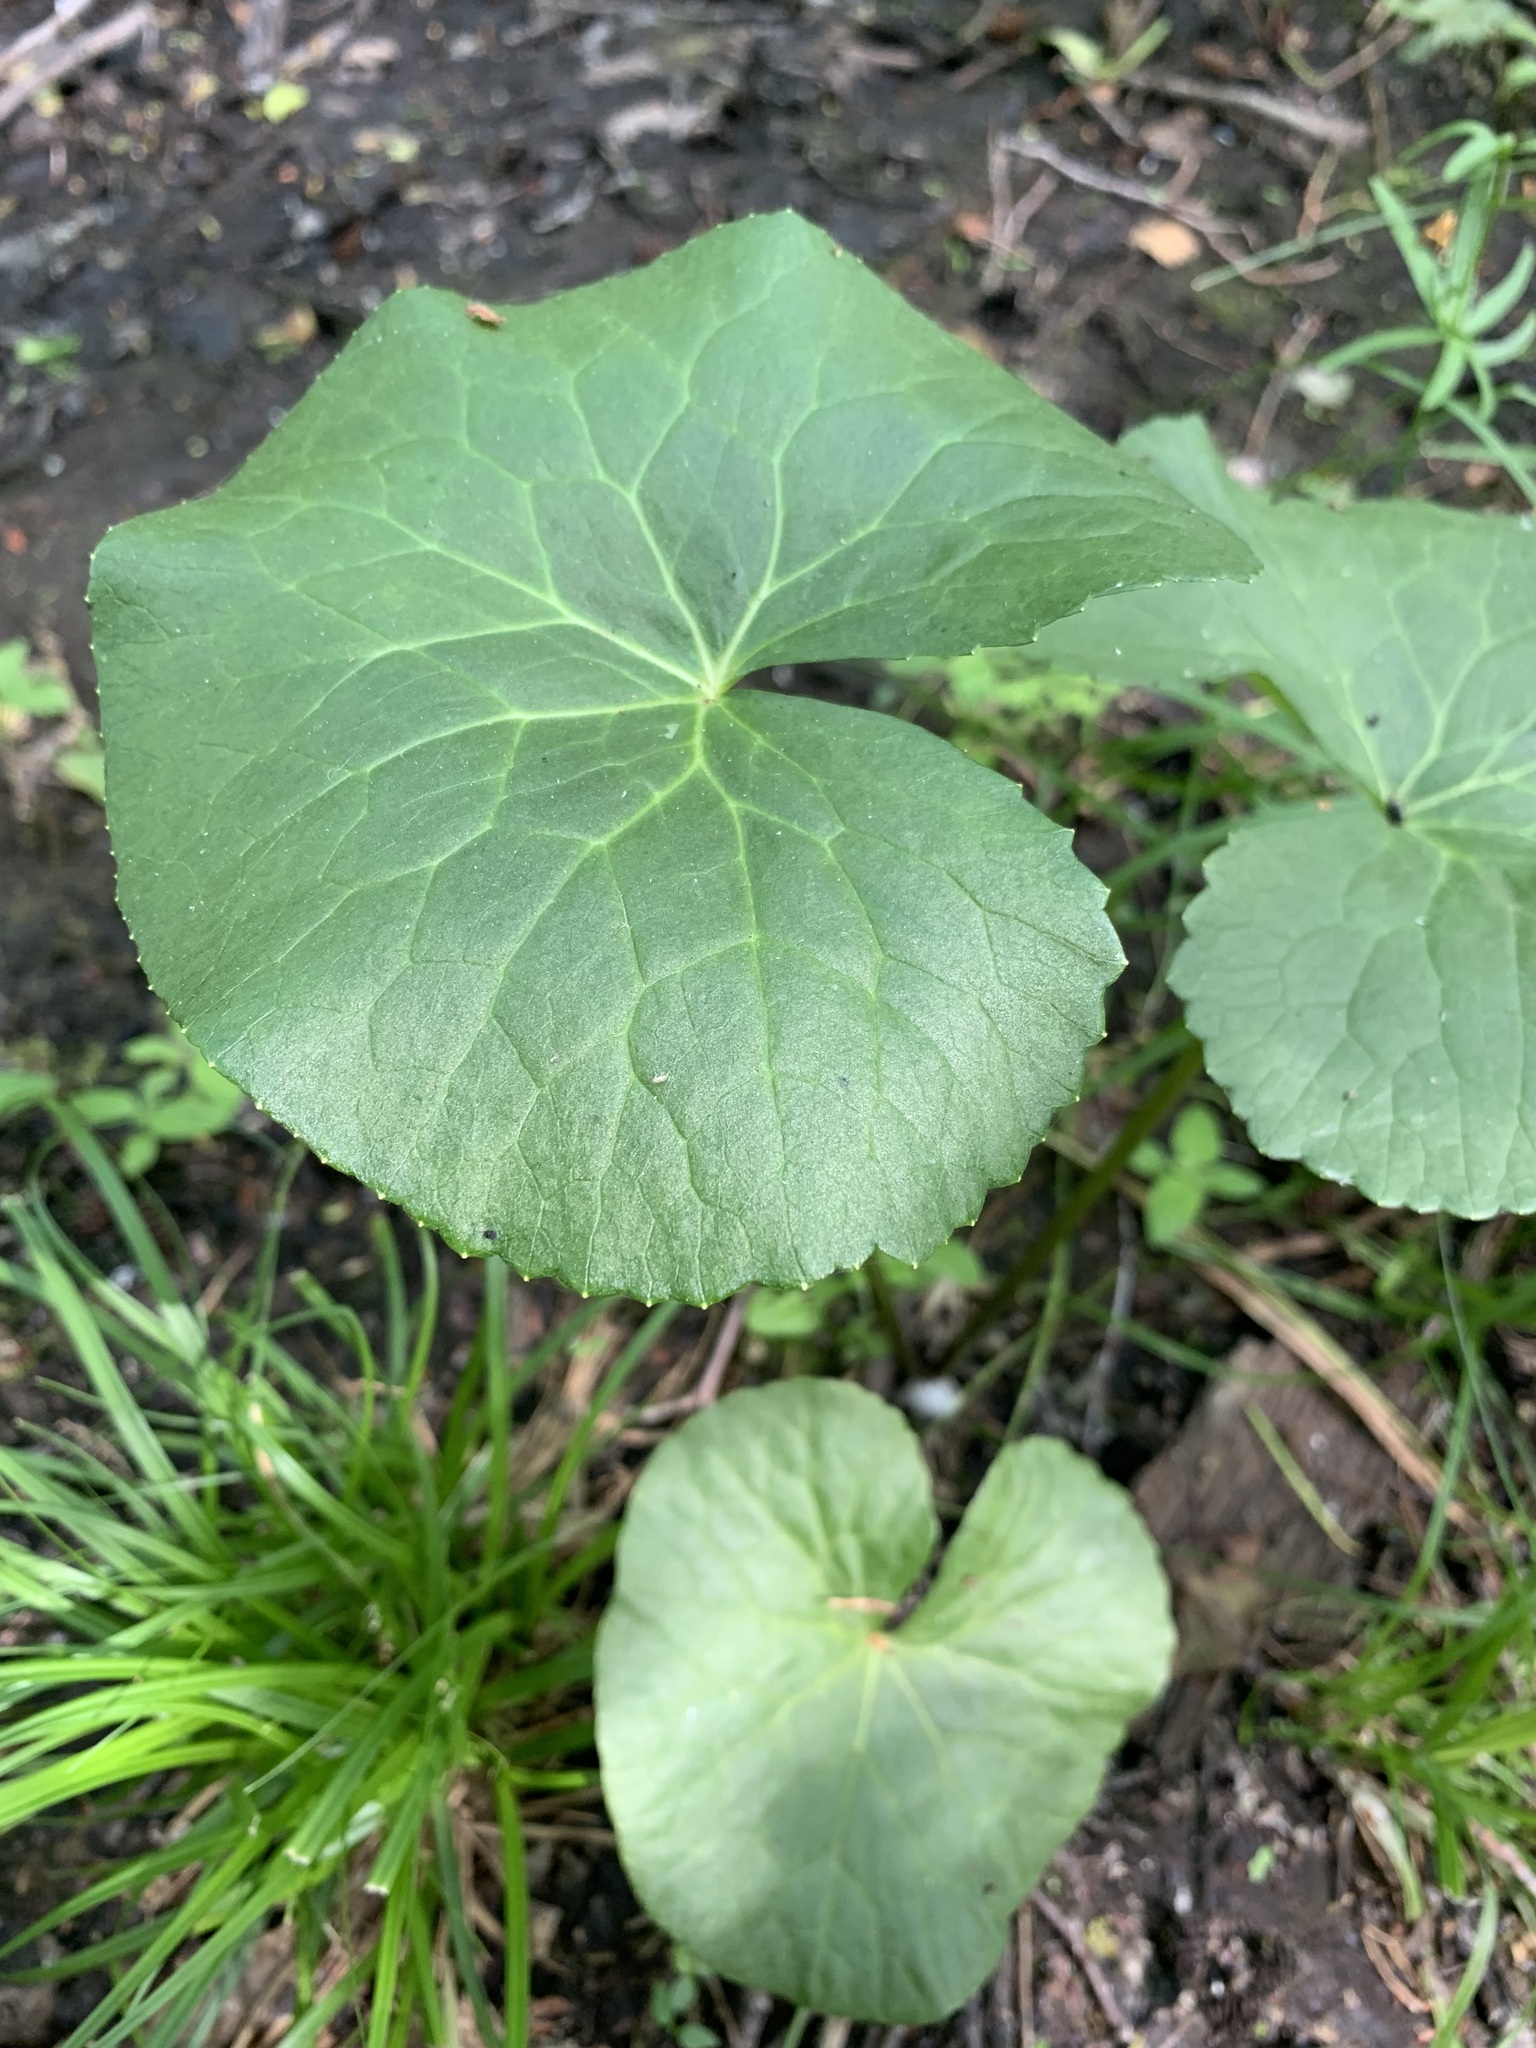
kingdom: Plantae
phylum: Tracheophyta
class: Magnoliopsida
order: Ranunculales
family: Ranunculaceae
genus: Caltha
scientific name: Caltha palustris
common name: Marsh marigold
